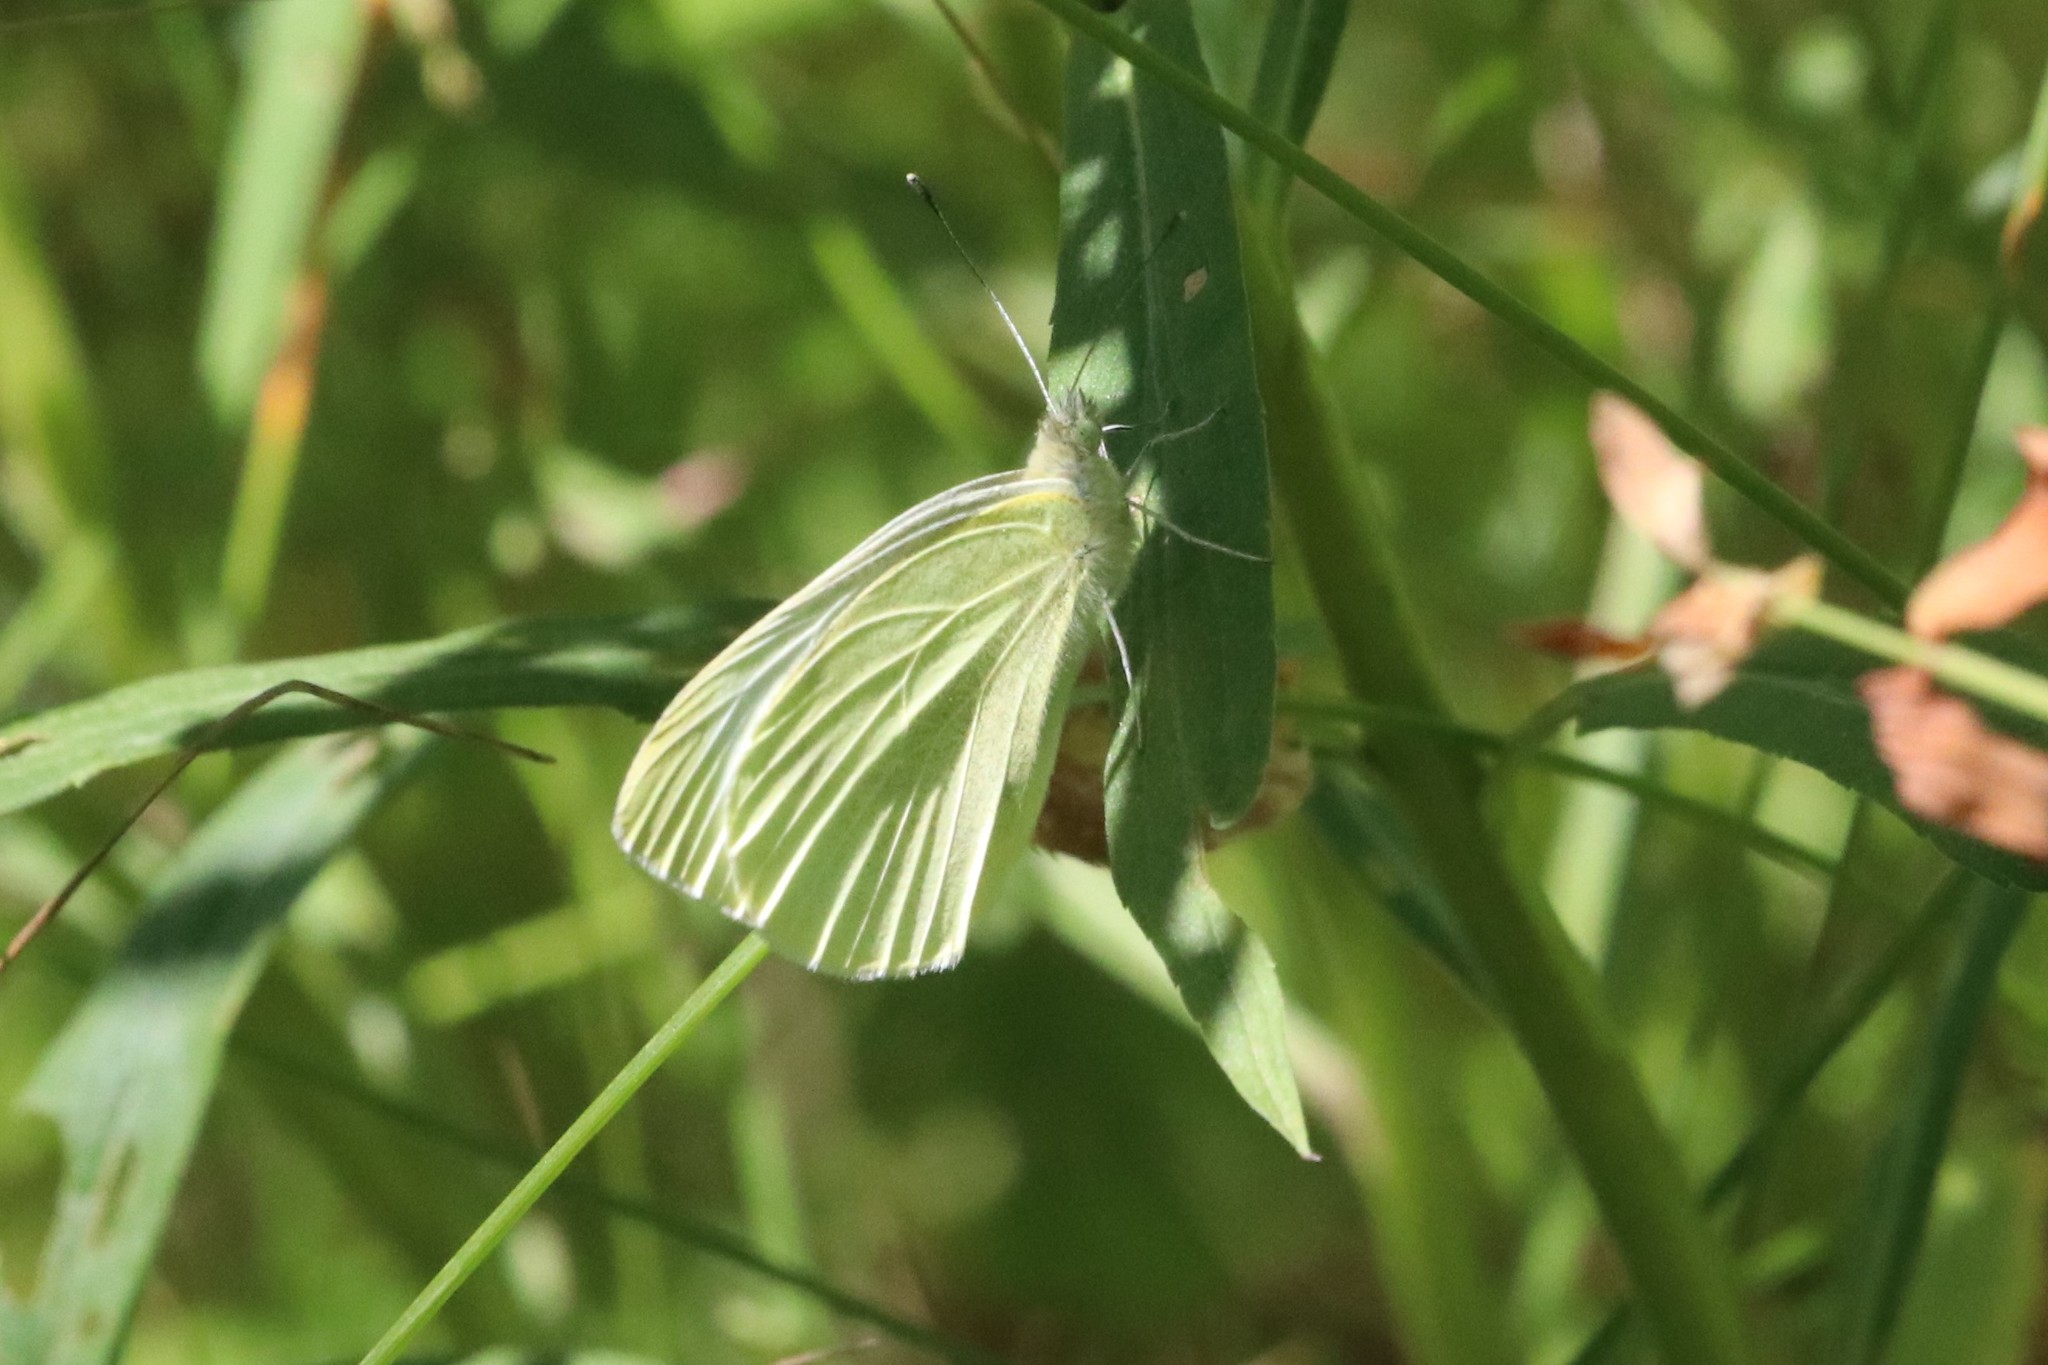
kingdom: Animalia
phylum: Arthropoda
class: Insecta
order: Lepidoptera
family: Pieridae
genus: Pieris
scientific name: Pieris oleracea
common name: Mustard white
